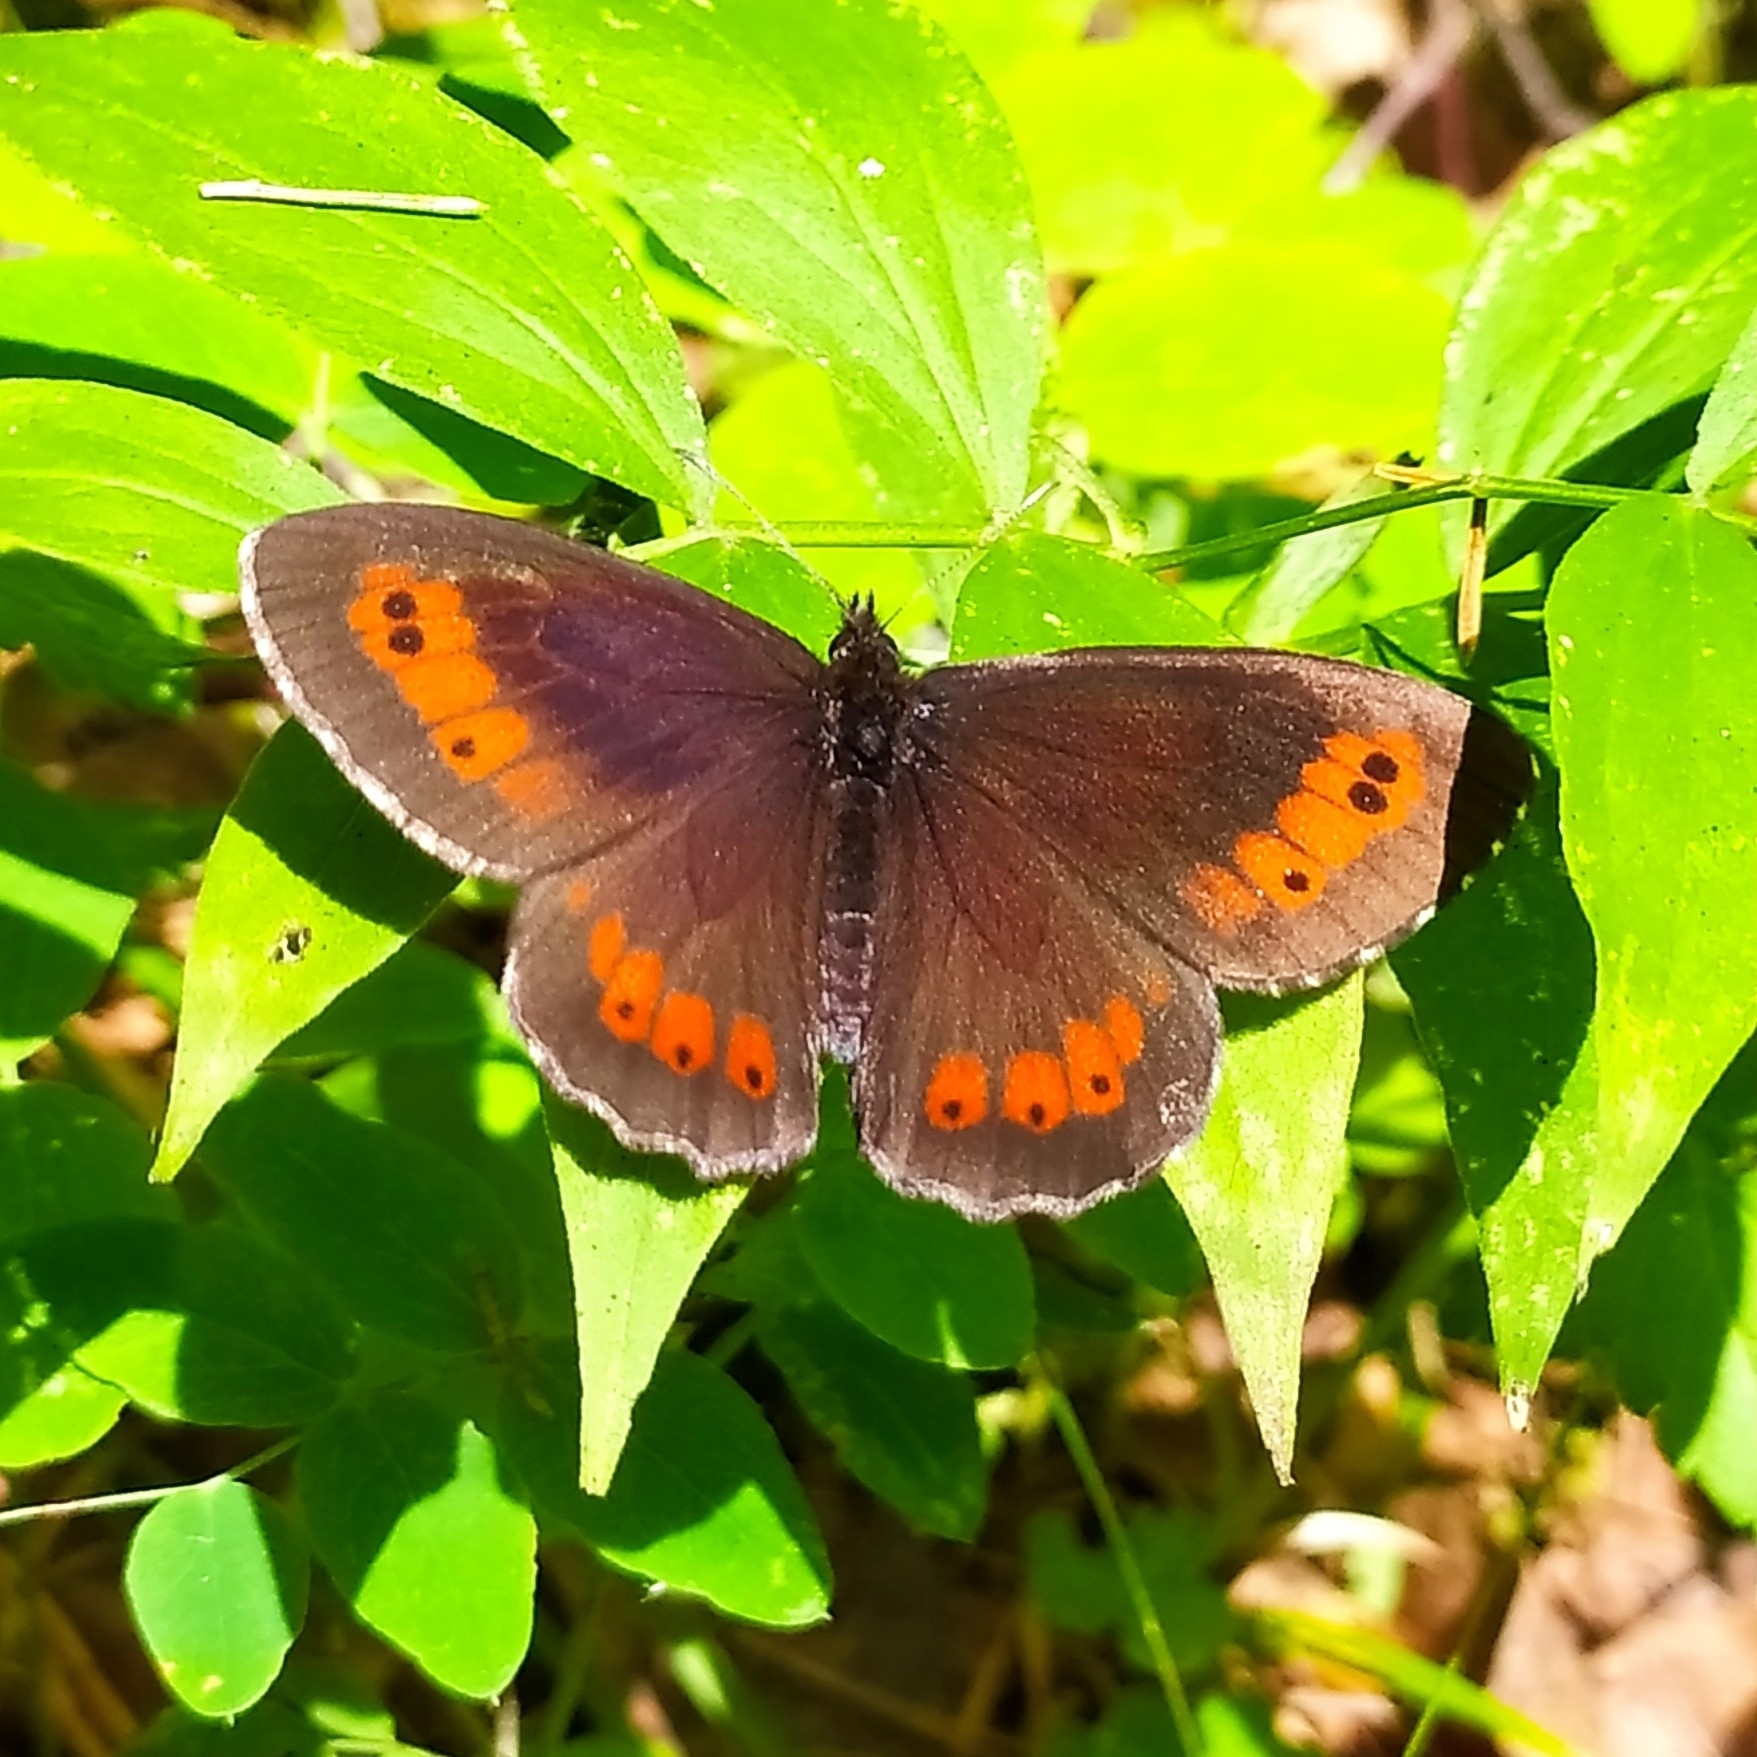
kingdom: Animalia
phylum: Arthropoda
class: Insecta
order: Lepidoptera
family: Nymphalidae
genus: Erebia
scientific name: Erebia ligea
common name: Arran brown
